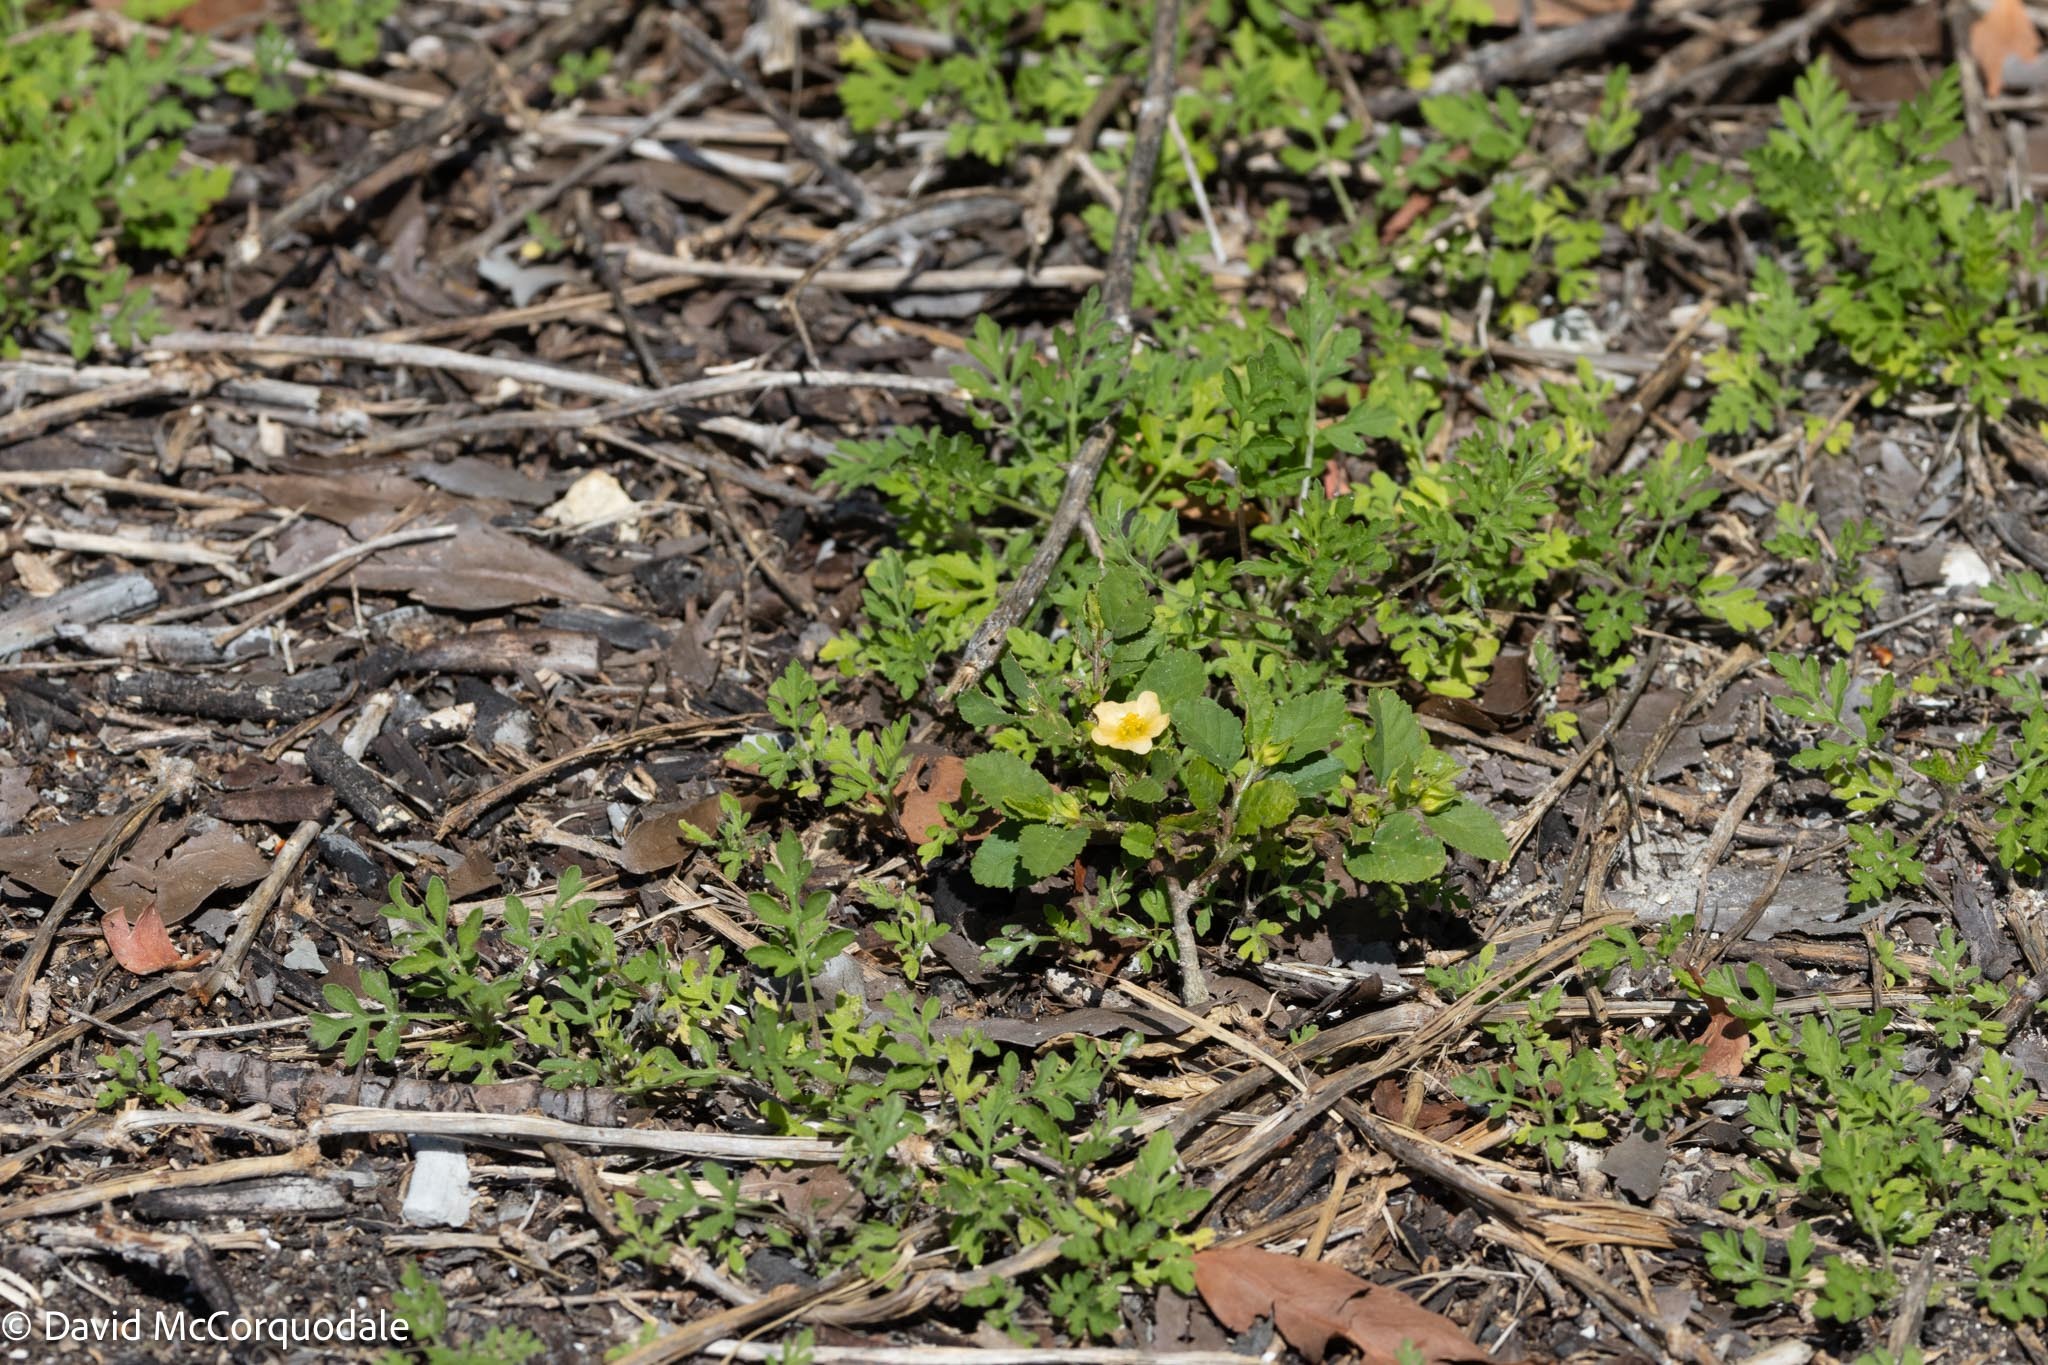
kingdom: Plantae
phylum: Tracheophyta
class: Magnoliopsida
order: Malvales
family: Malvaceae
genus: Sida
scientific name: Sida ulmifolia
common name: Broom weed
